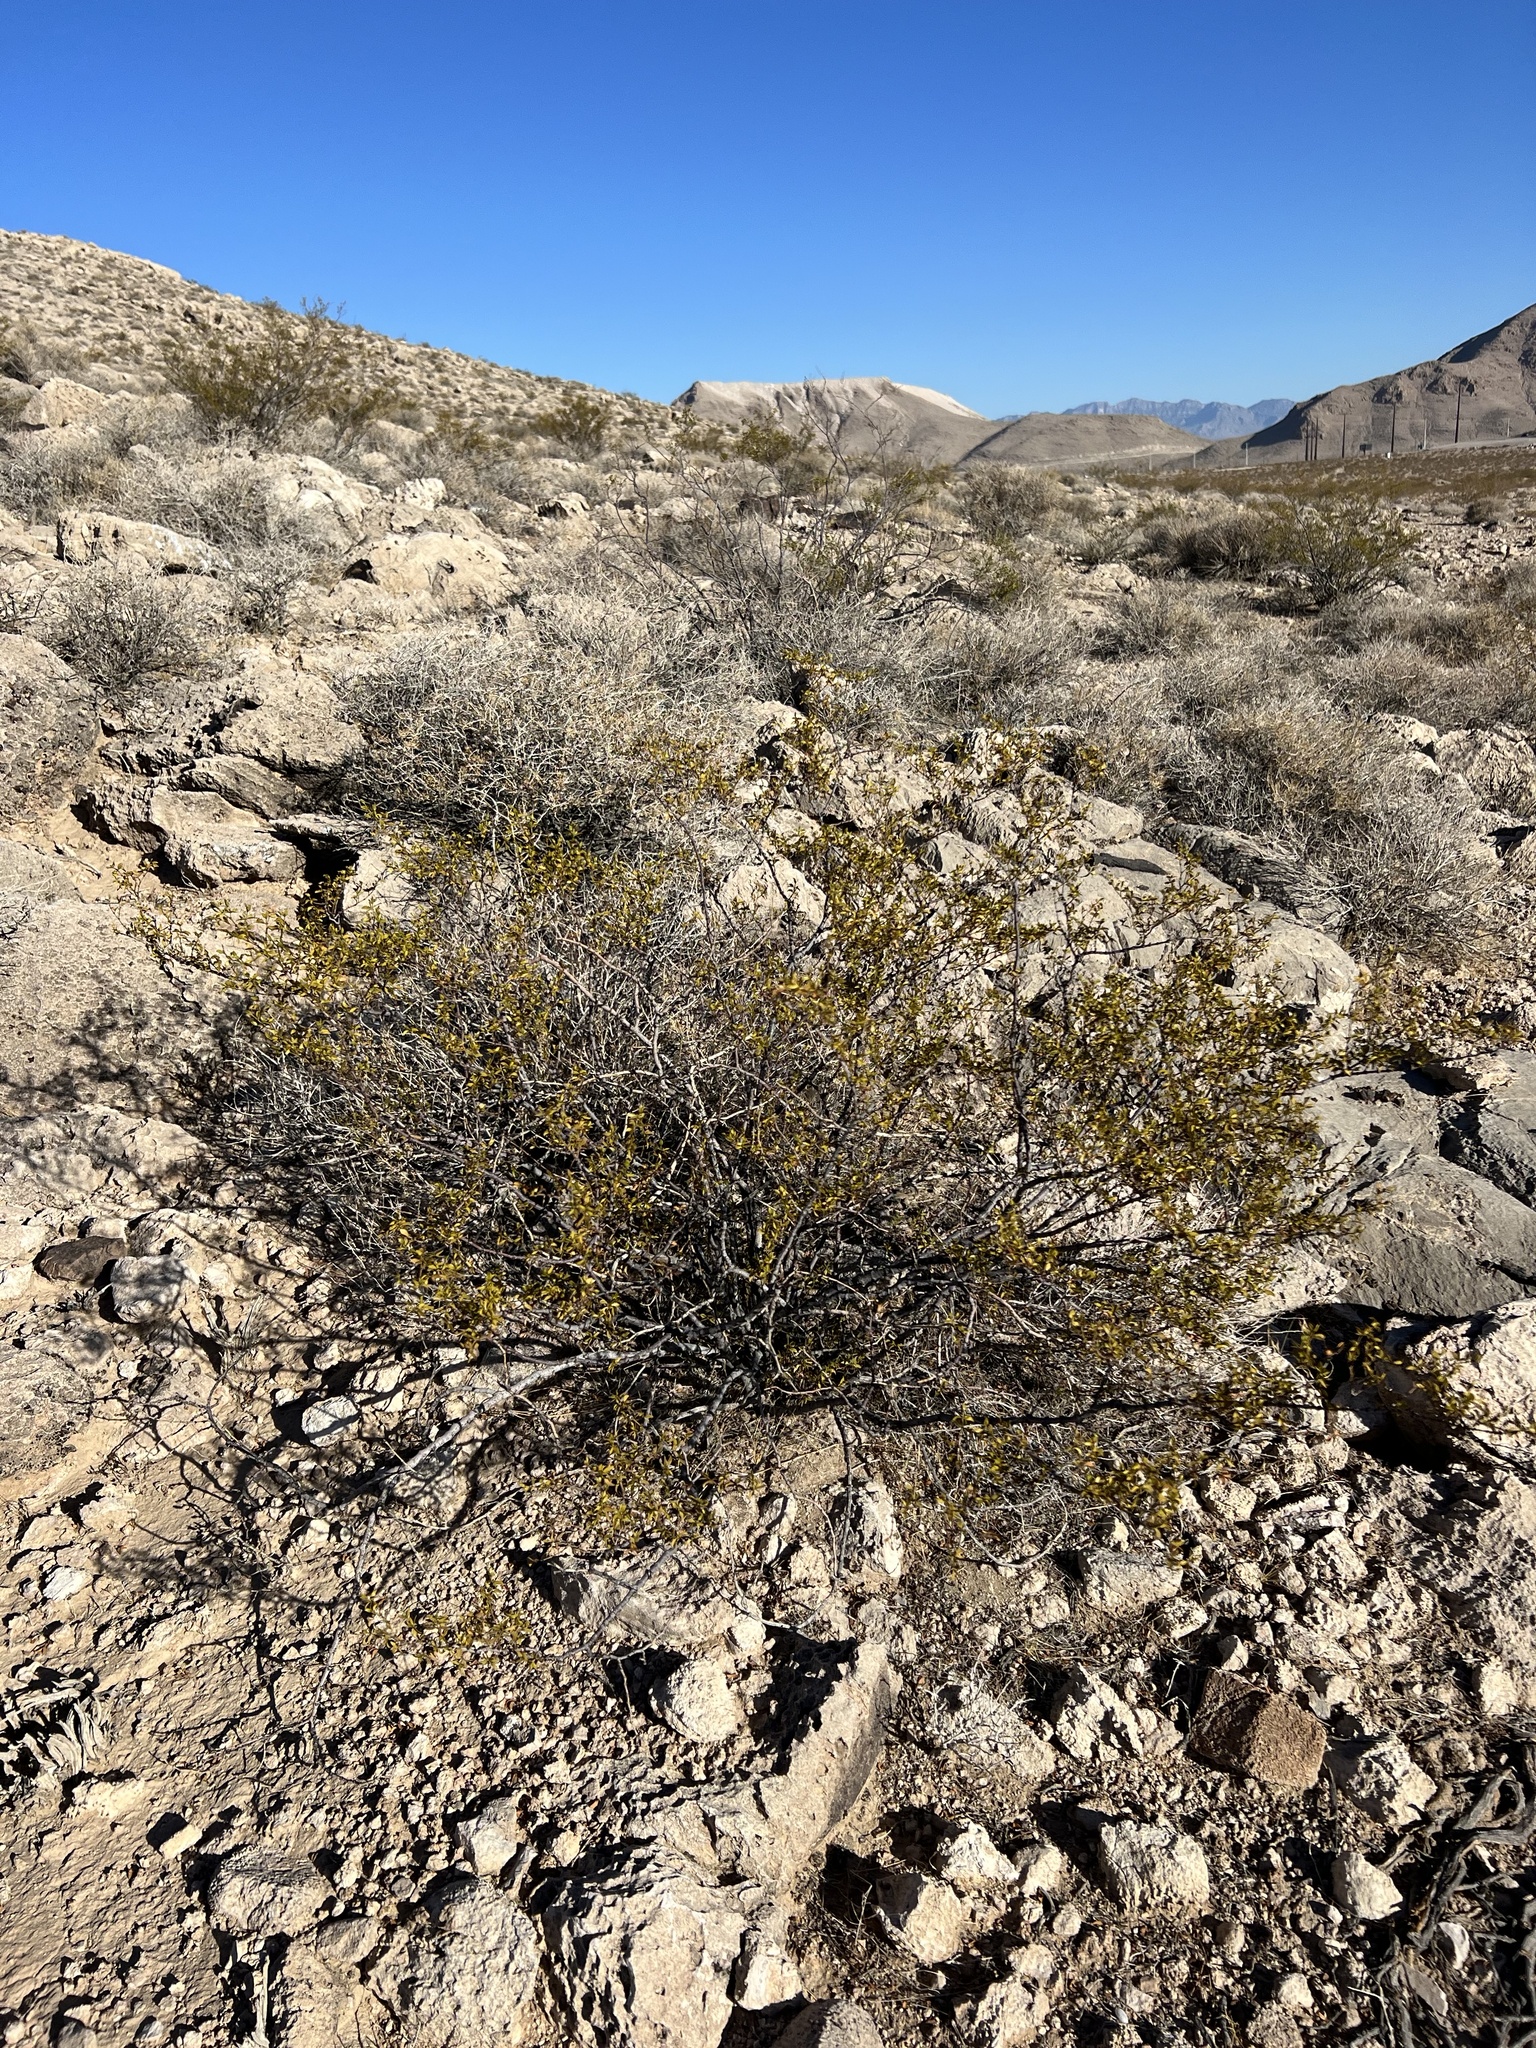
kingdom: Plantae
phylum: Tracheophyta
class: Magnoliopsida
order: Zygophyllales
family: Zygophyllaceae
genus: Larrea
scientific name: Larrea tridentata
